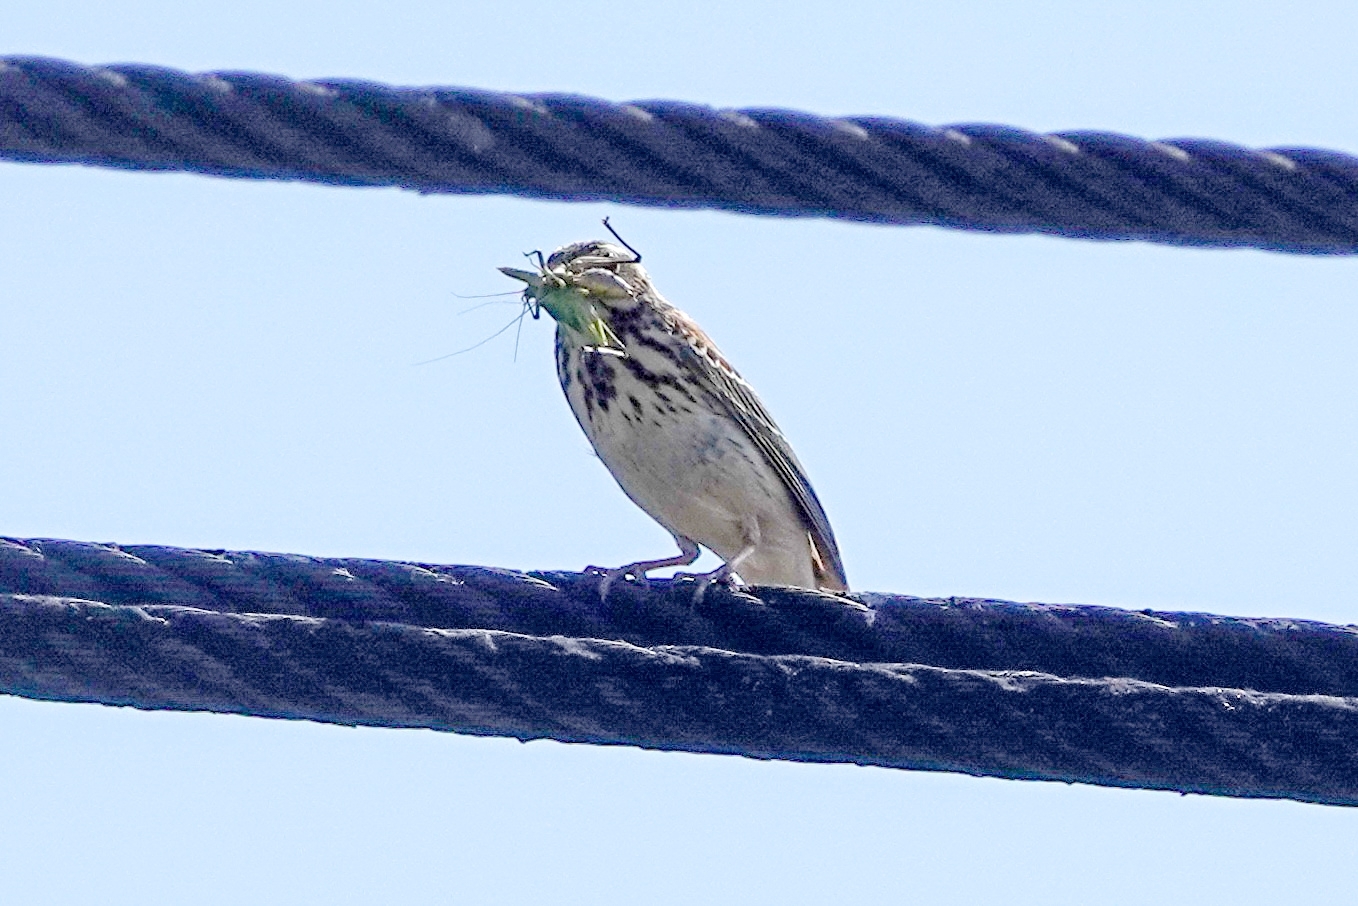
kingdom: Animalia
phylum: Chordata
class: Aves
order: Passeriformes
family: Motacillidae
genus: Anthus
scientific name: Anthus trivialis
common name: Tree pipit
